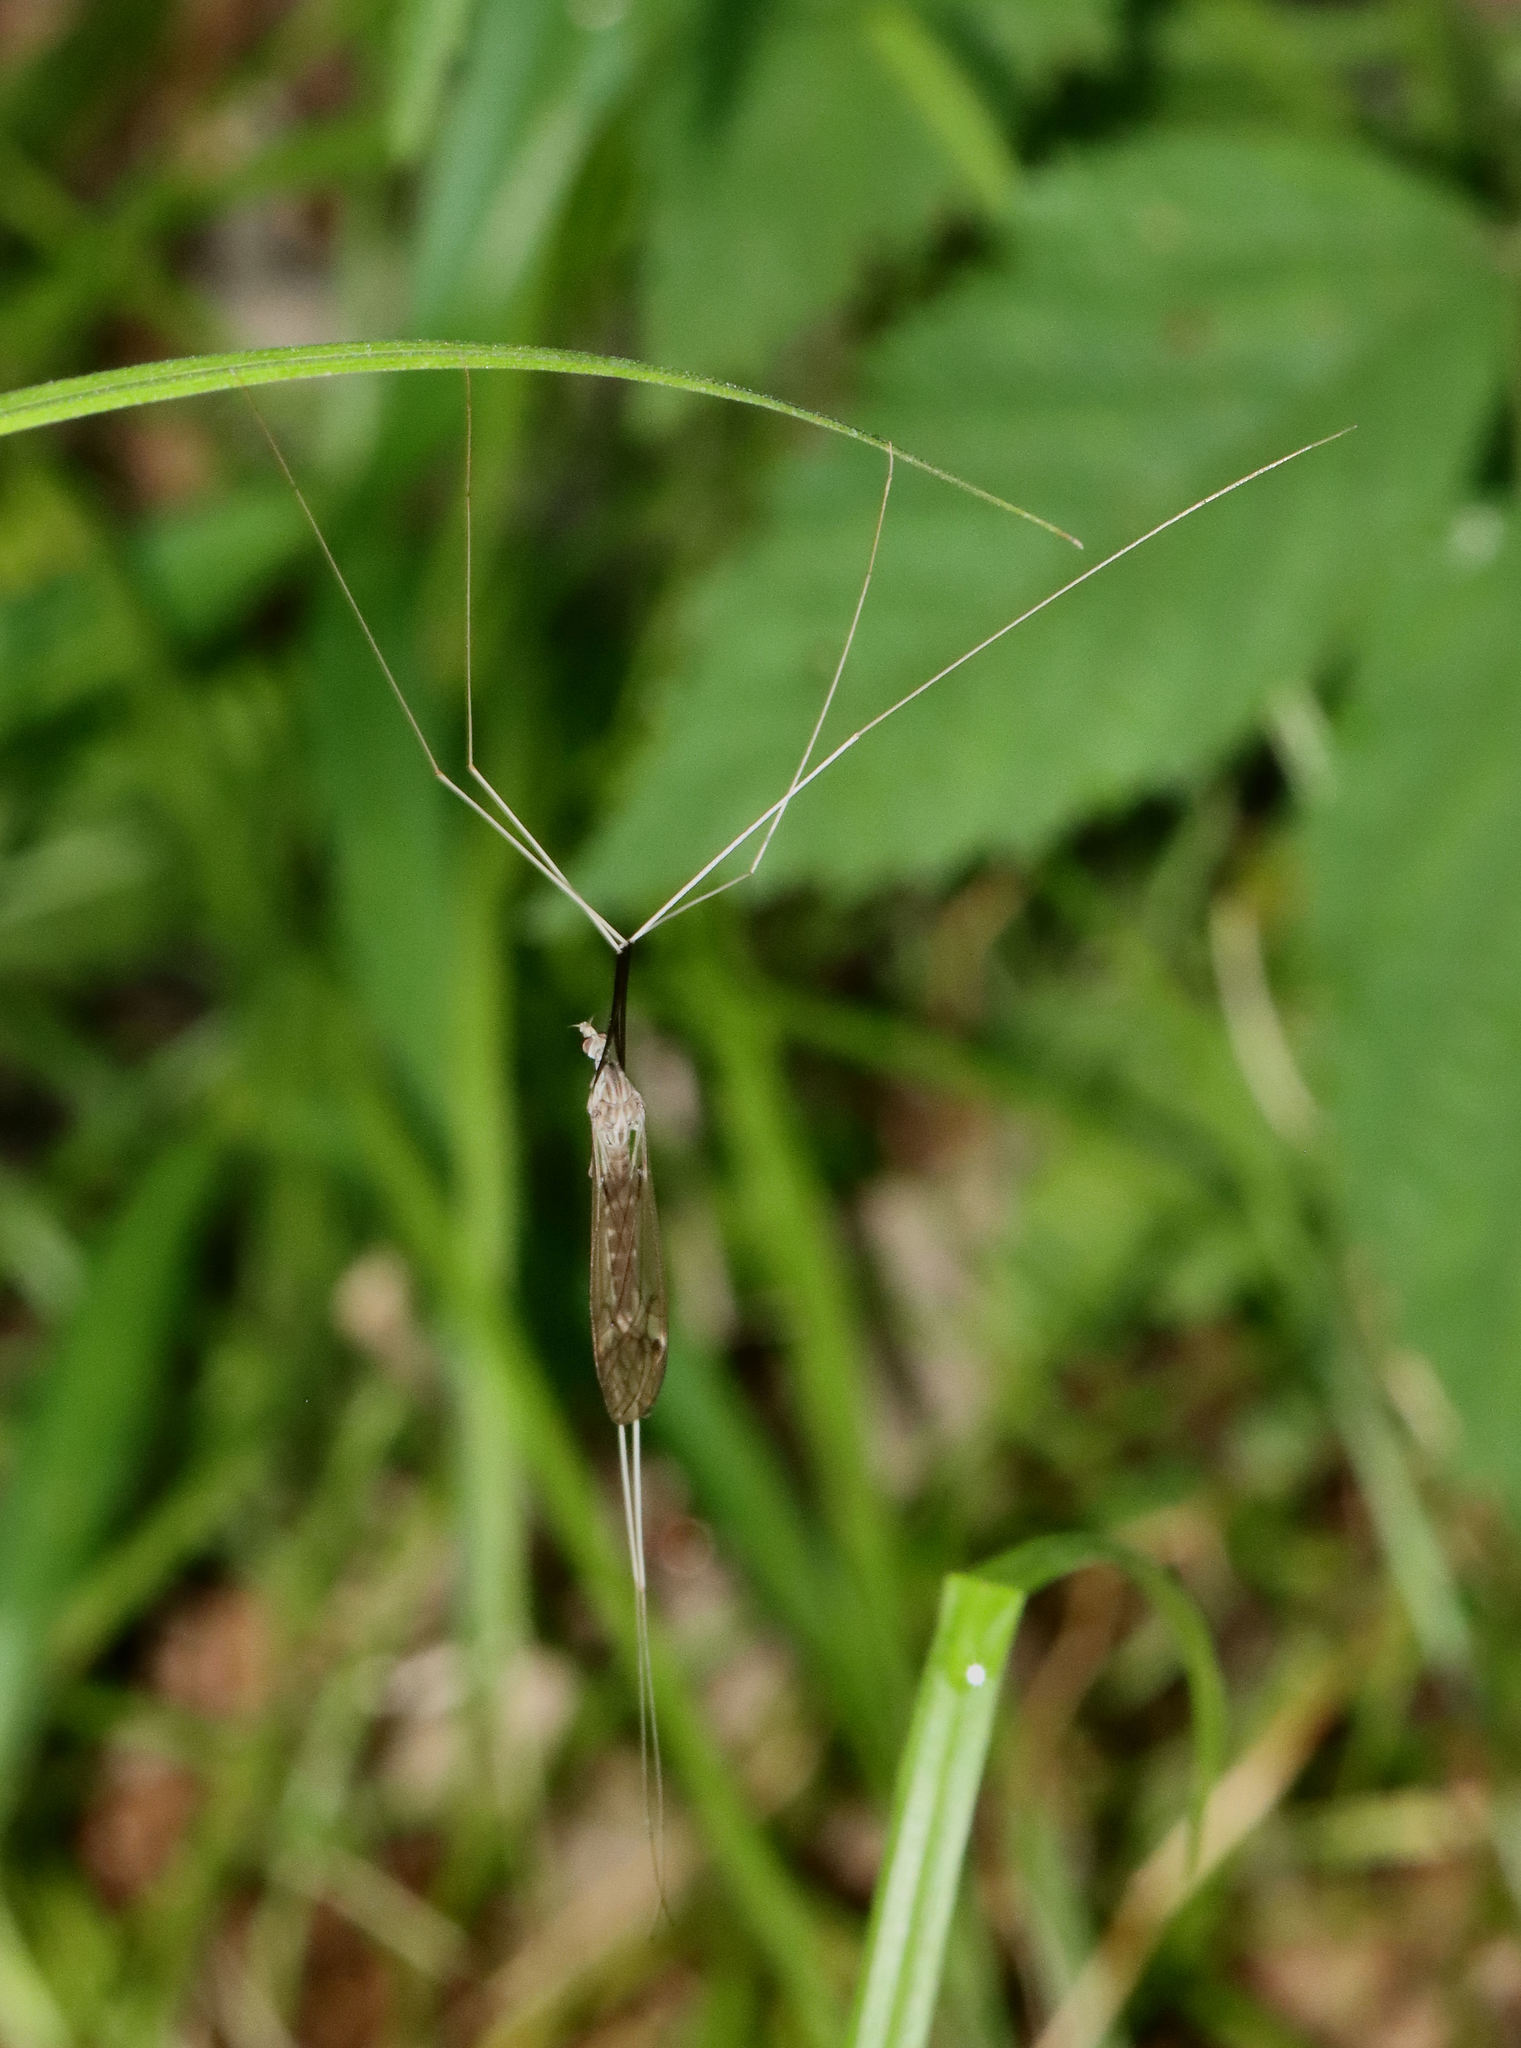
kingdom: Animalia
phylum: Arthropoda
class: Insecta
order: Diptera
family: Tipulidae
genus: Brachypremna
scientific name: Brachypremna dispellens
